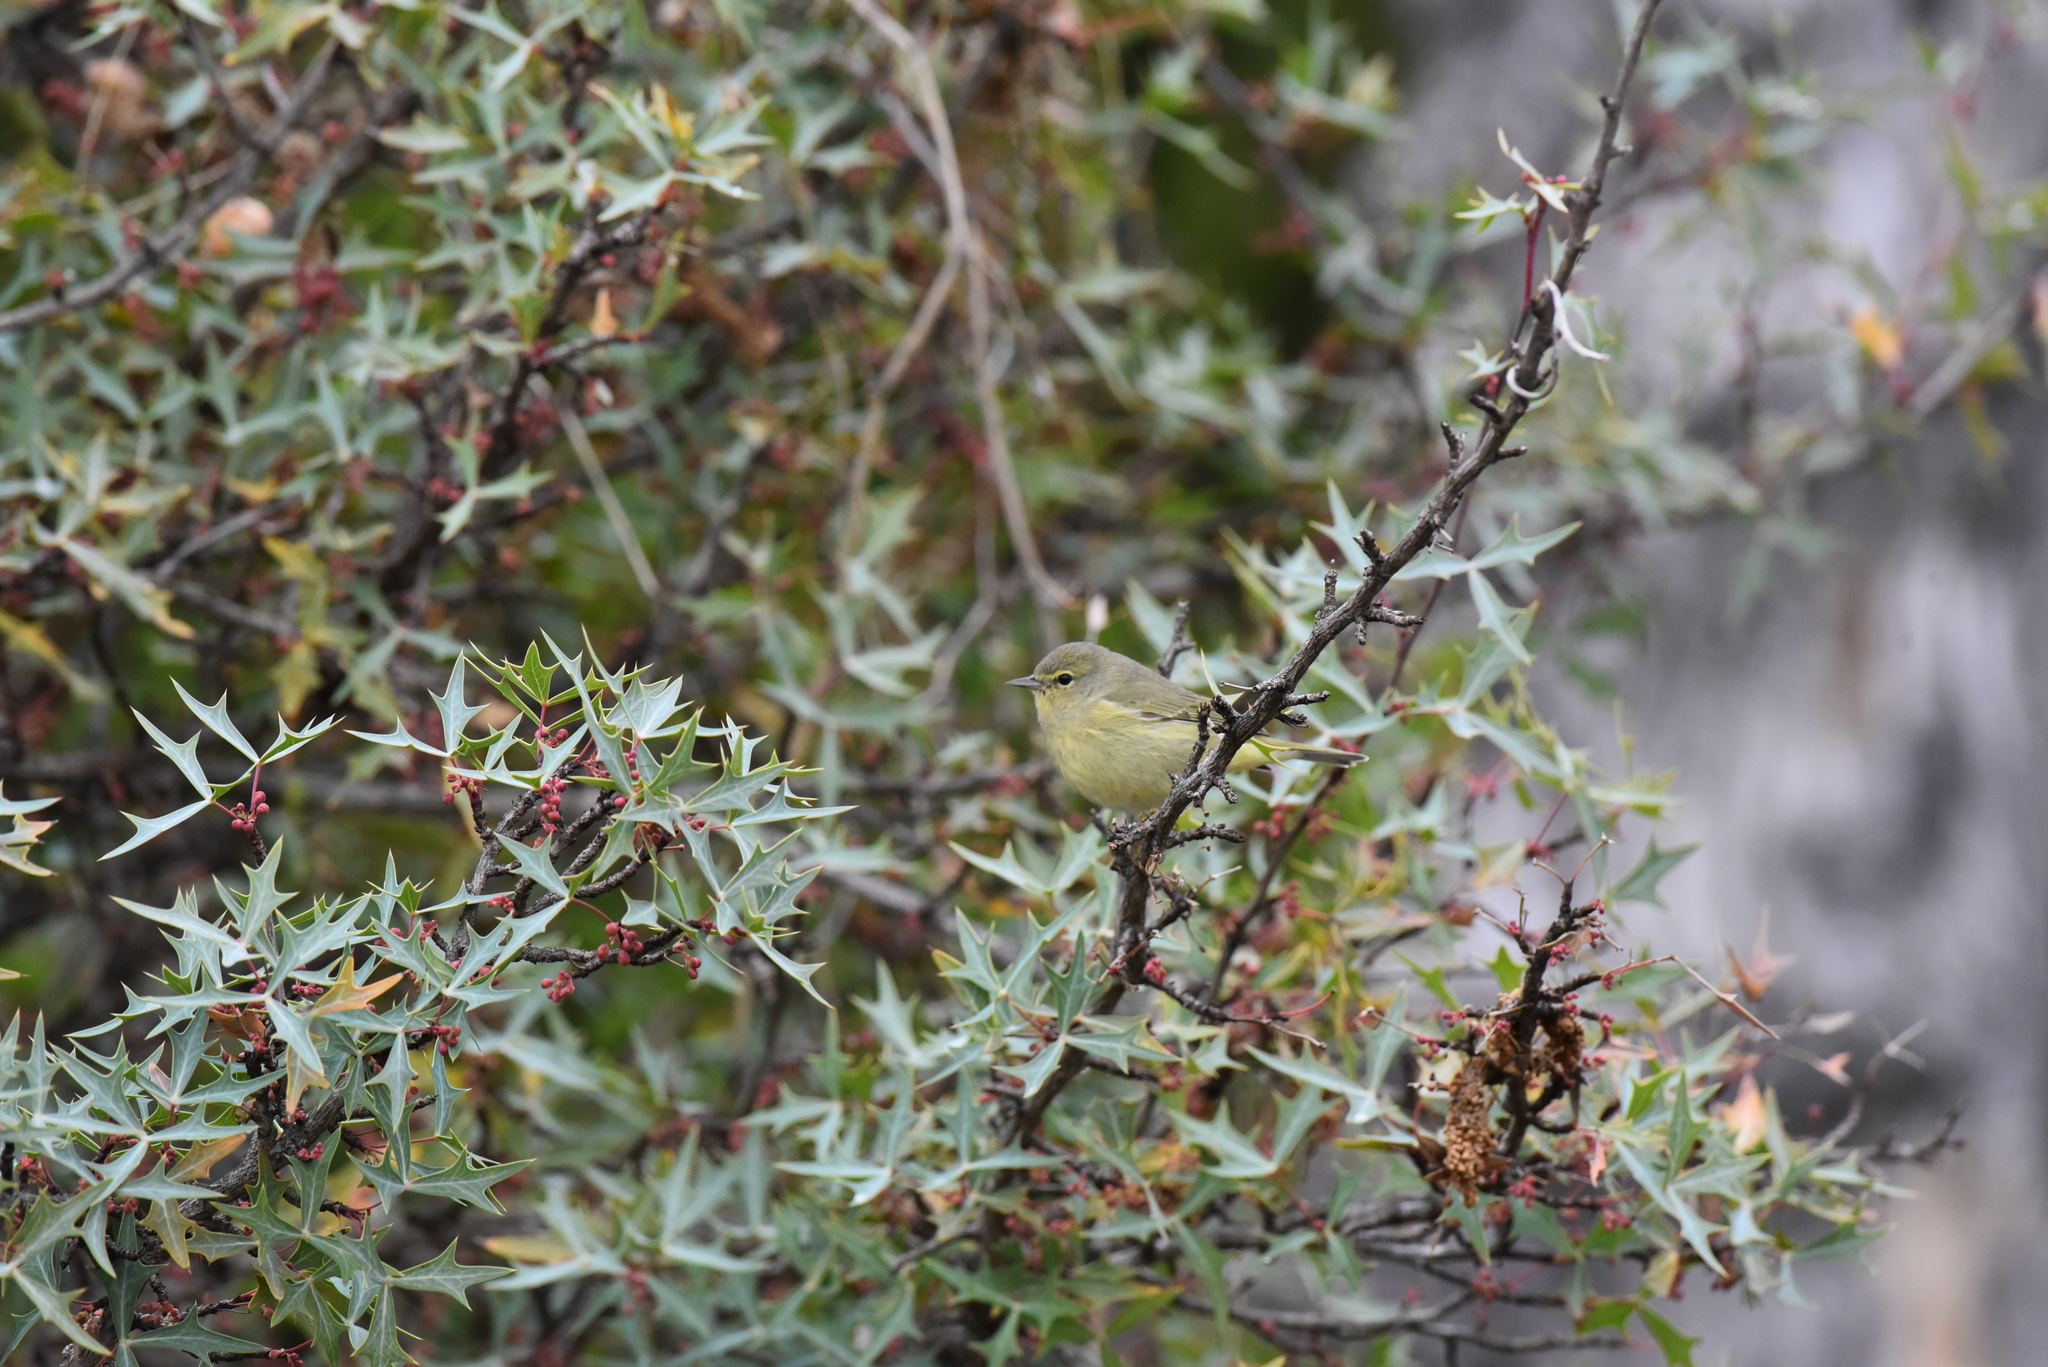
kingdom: Animalia
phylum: Chordata
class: Aves
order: Passeriformes
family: Parulidae
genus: Leiothlypis
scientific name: Leiothlypis celata
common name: Orange-crowned warbler
